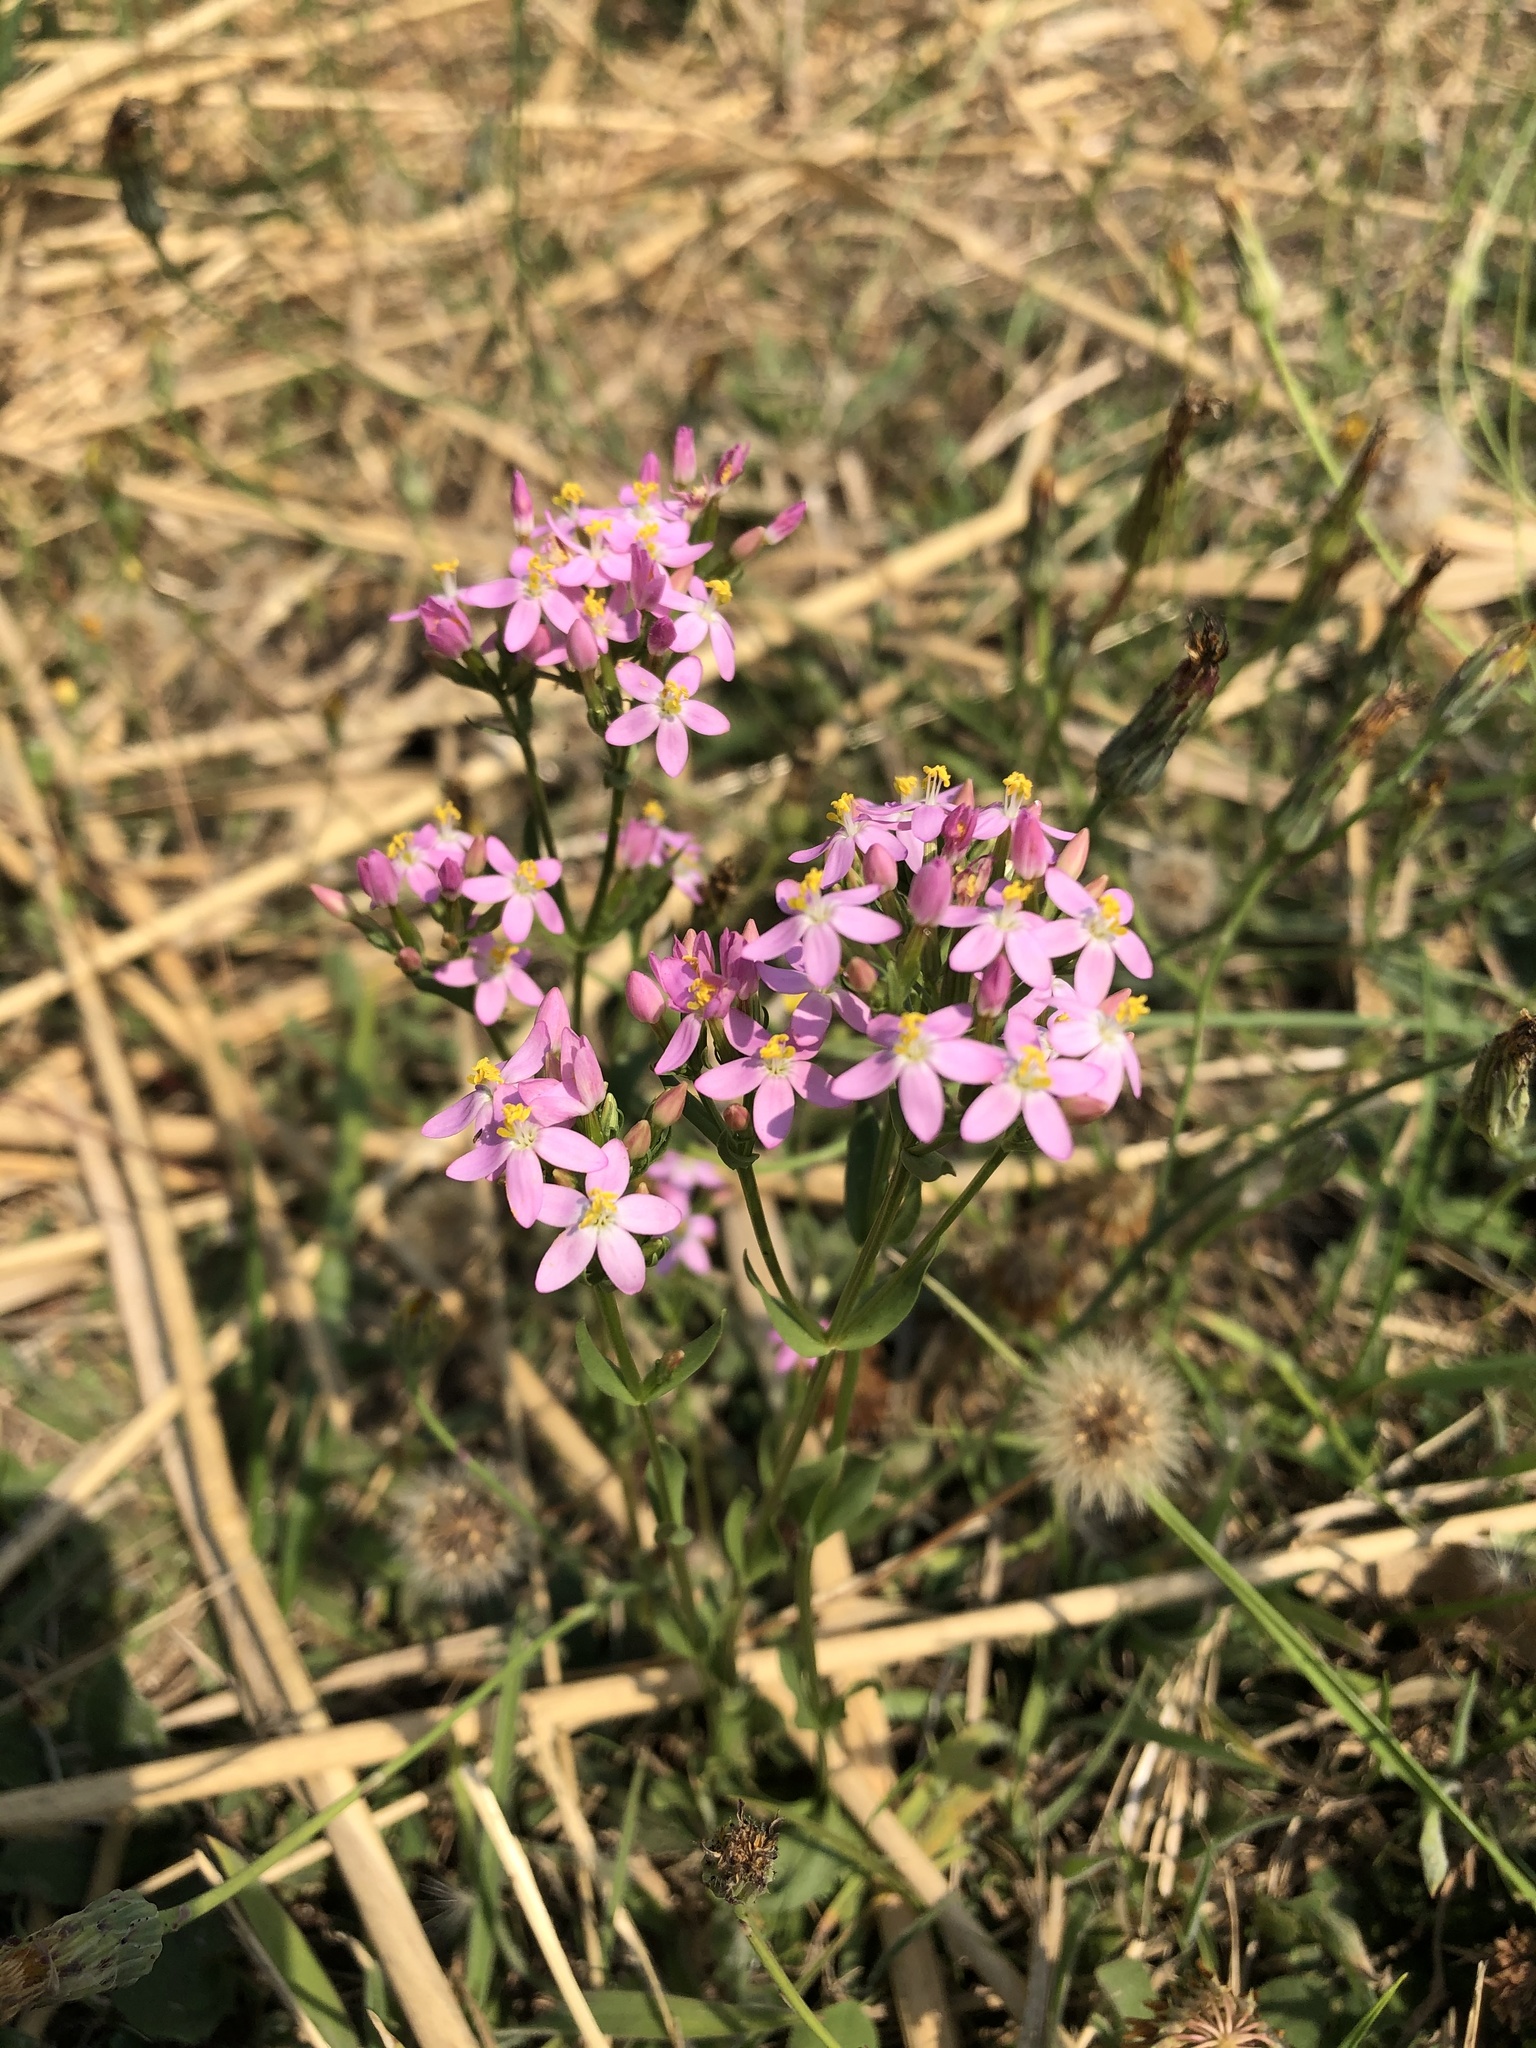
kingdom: Plantae
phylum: Tracheophyta
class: Magnoliopsida
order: Gentianales
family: Gentianaceae
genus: Centaurium
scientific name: Centaurium erythraea
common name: Common centaury
